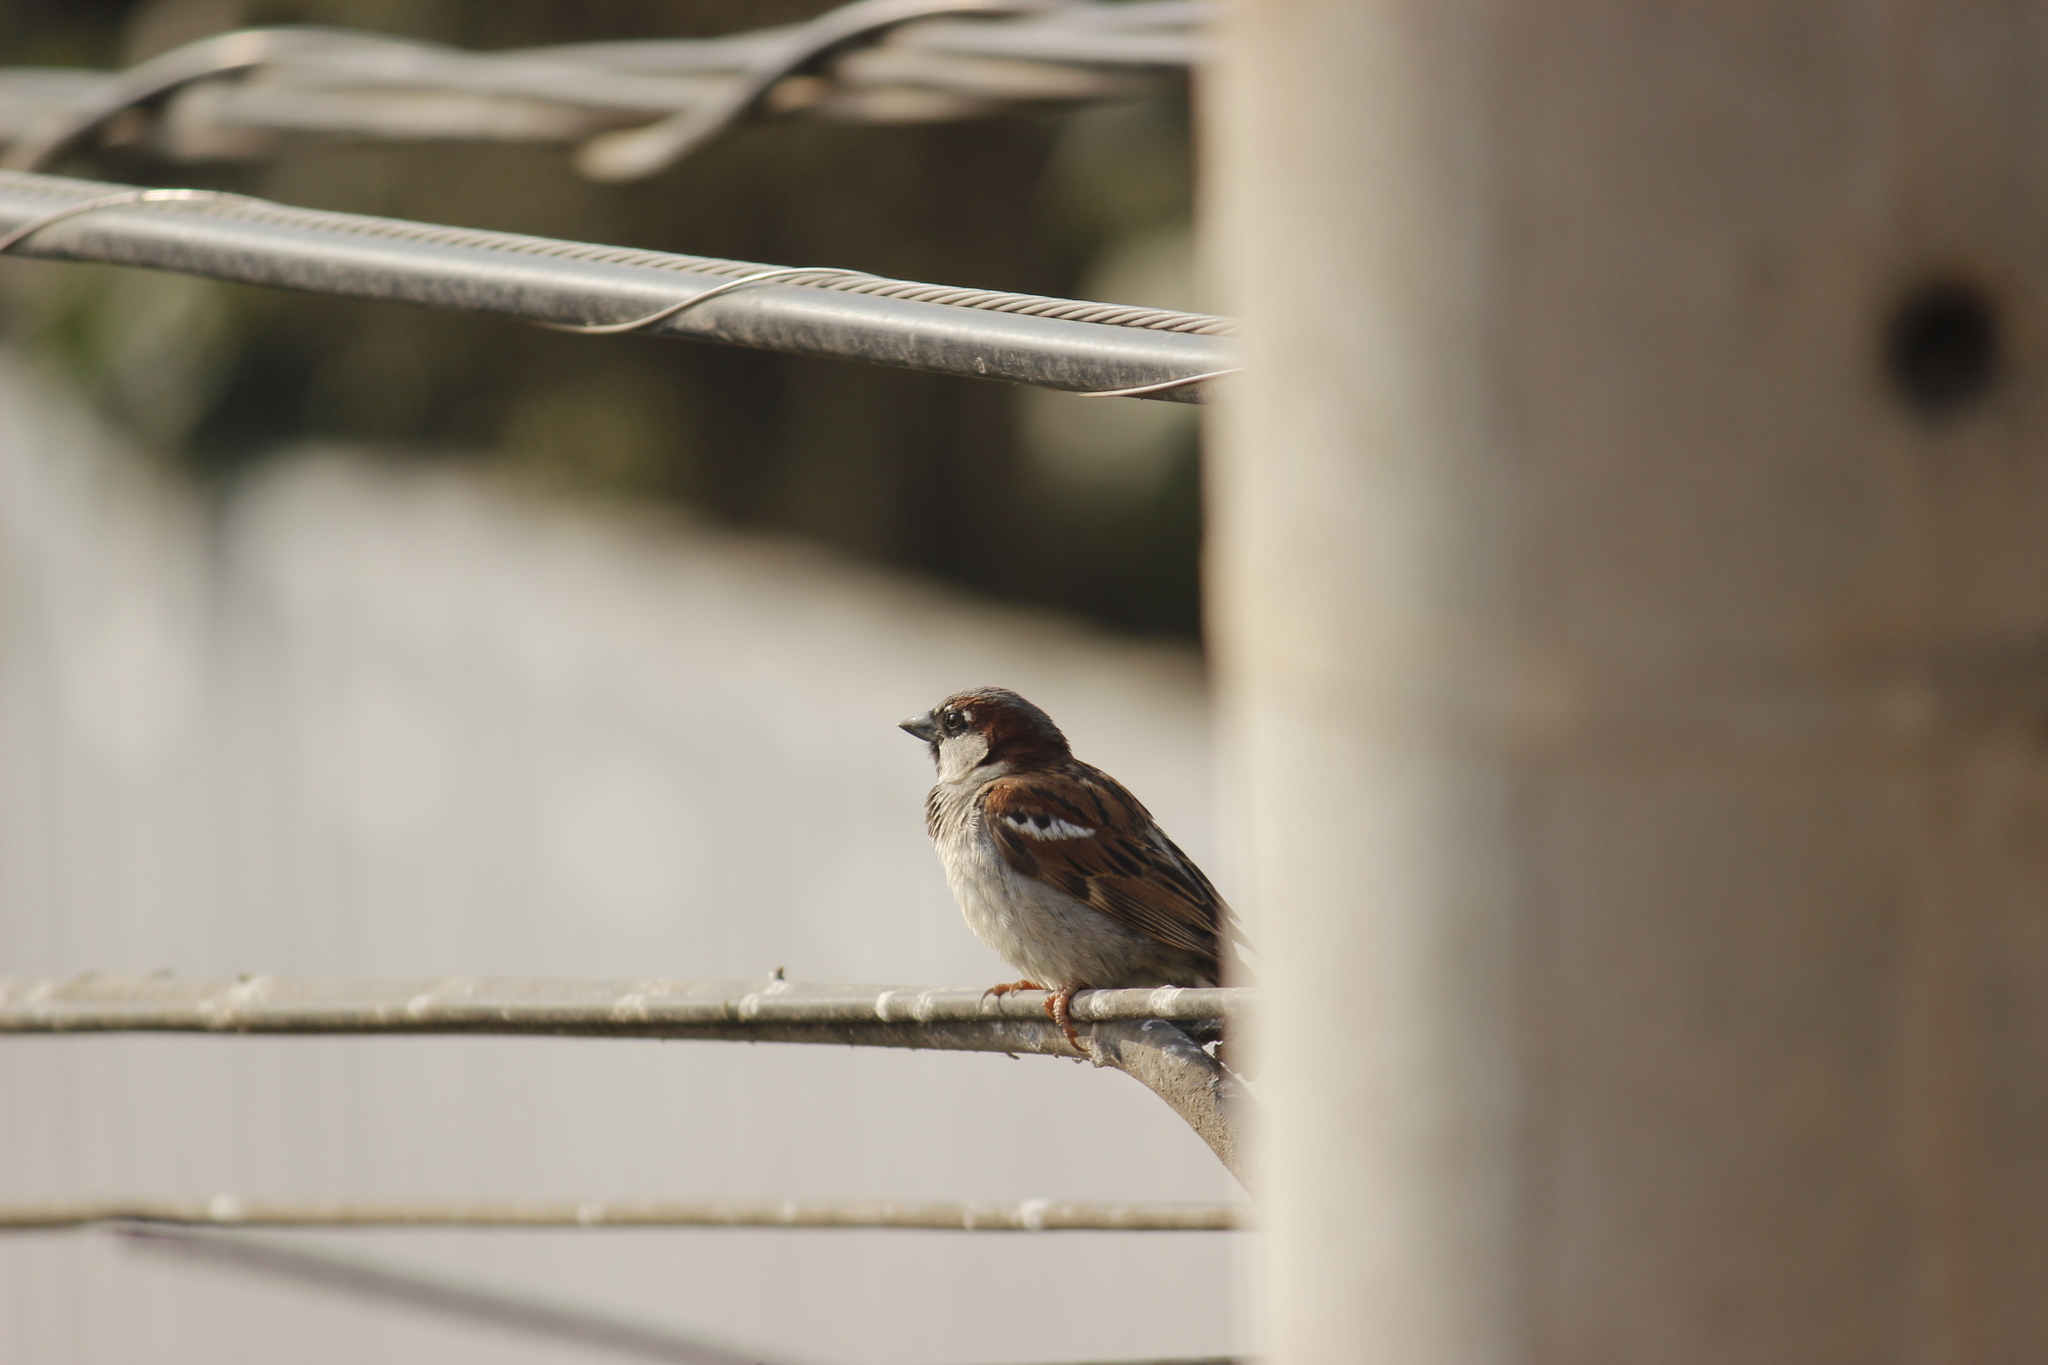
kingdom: Animalia
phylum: Chordata
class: Aves
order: Passeriformes
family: Passeridae
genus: Passer
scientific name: Passer domesticus
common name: House sparrow
